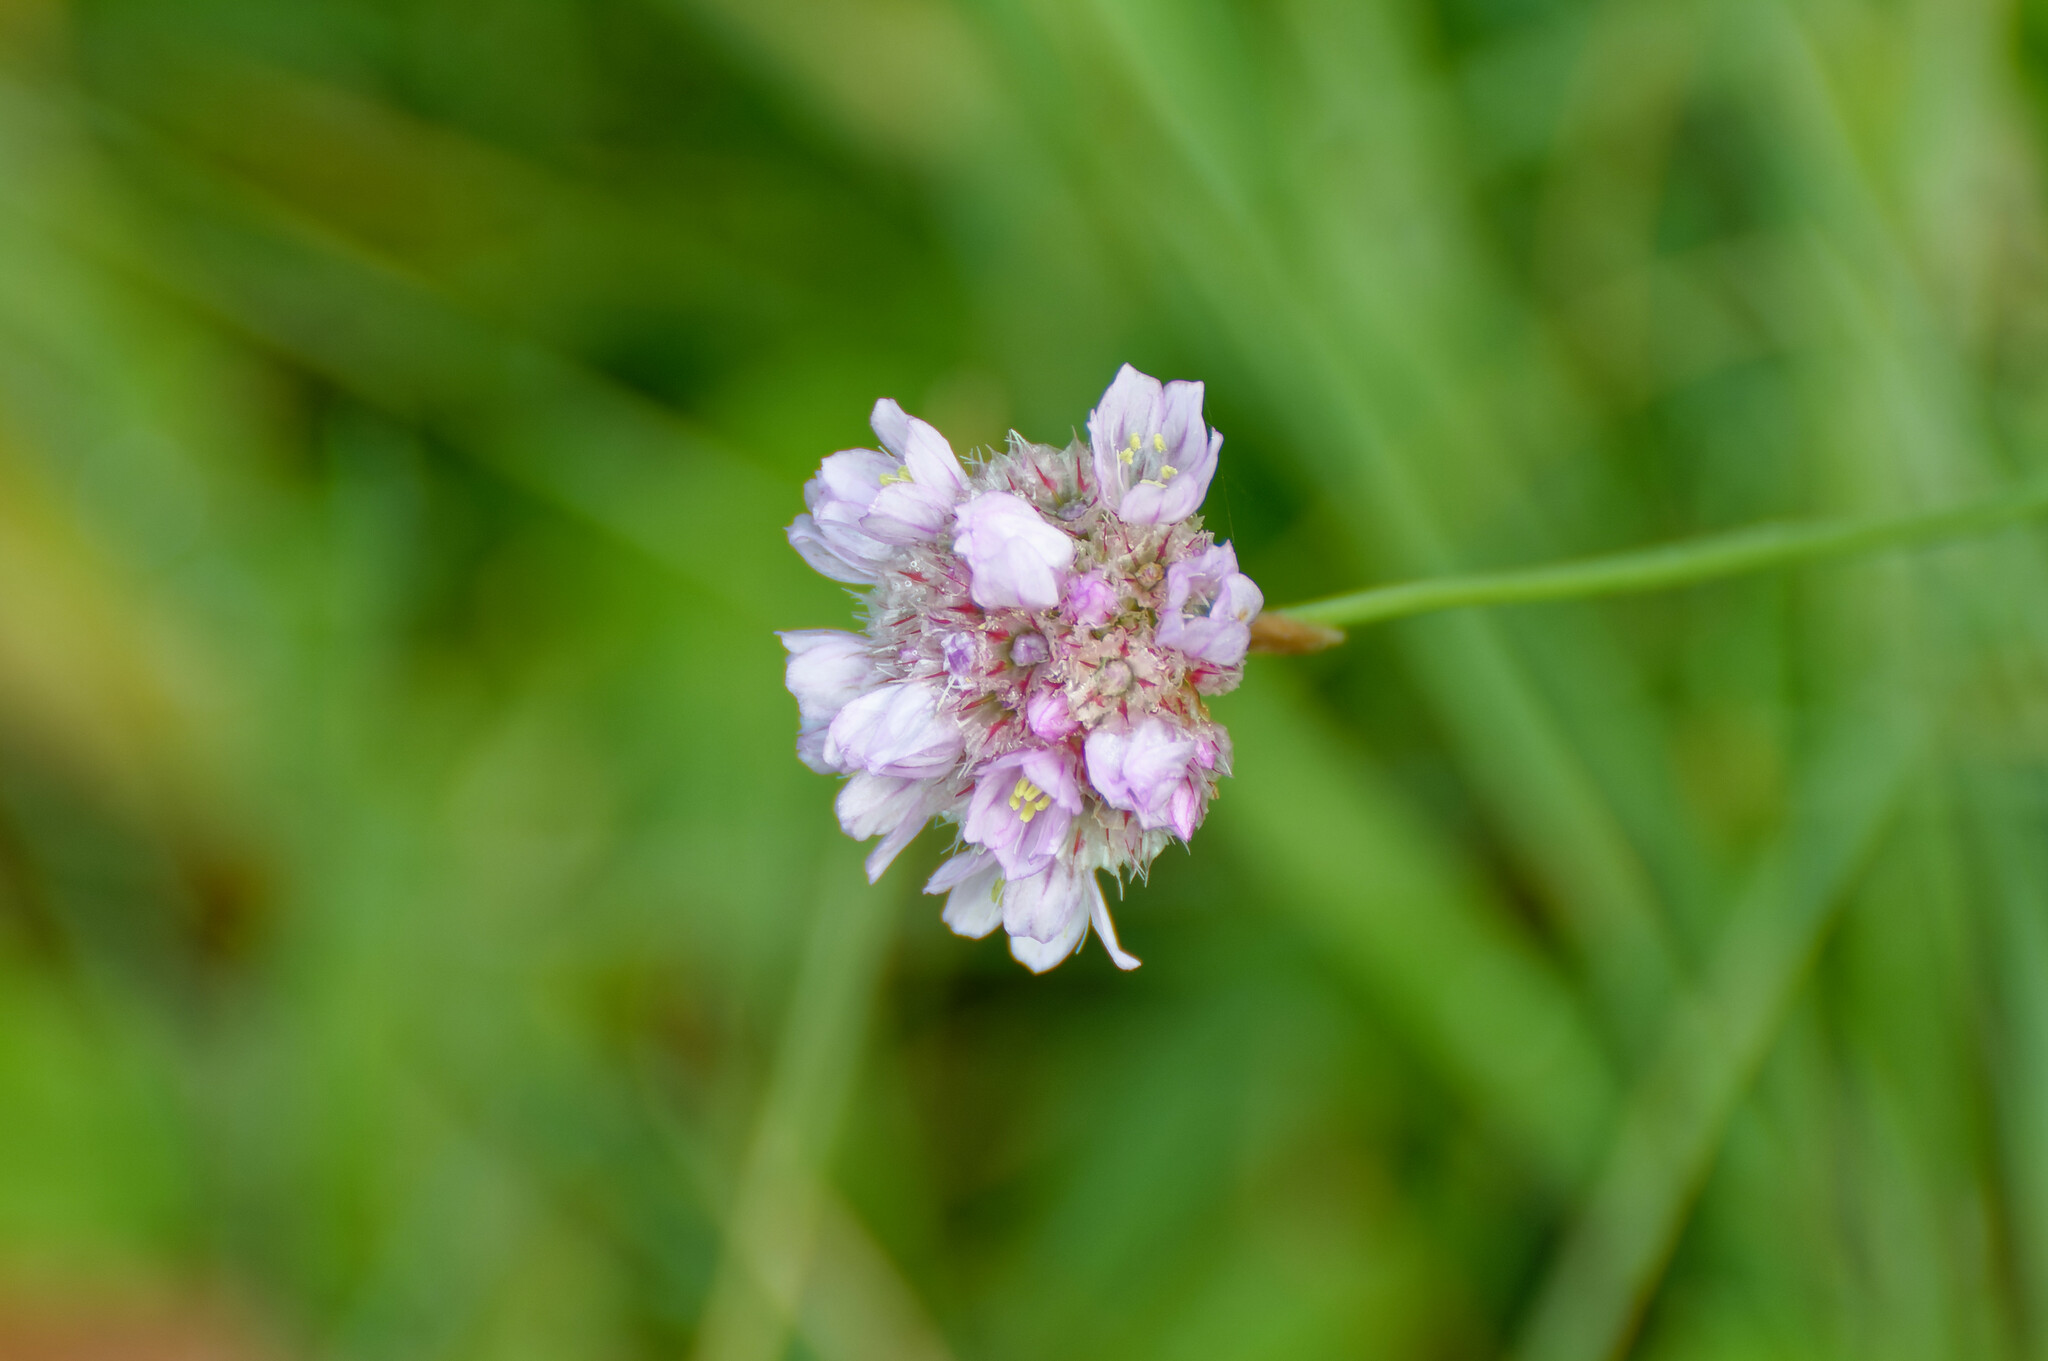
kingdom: Plantae
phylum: Tracheophyta
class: Magnoliopsida
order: Caryophyllales
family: Plumbaginaceae
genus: Armeria
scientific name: Armeria maritima
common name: Thrift
